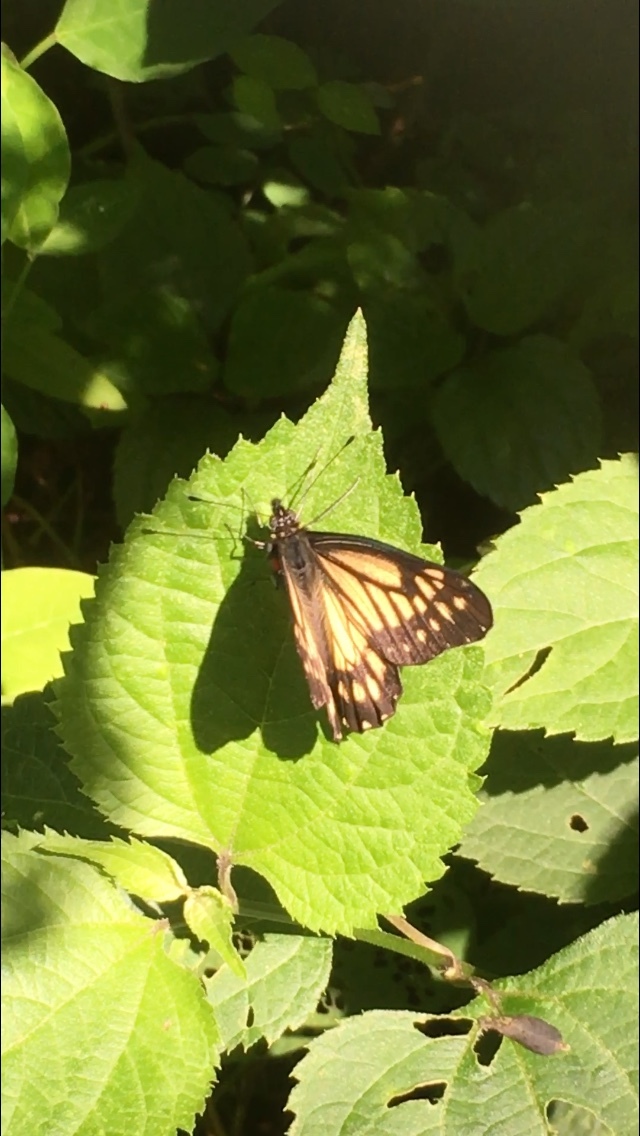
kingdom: Animalia
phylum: Arthropoda
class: Insecta
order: Lepidoptera
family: Pieridae
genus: Archonias
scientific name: Archonias nimbice
